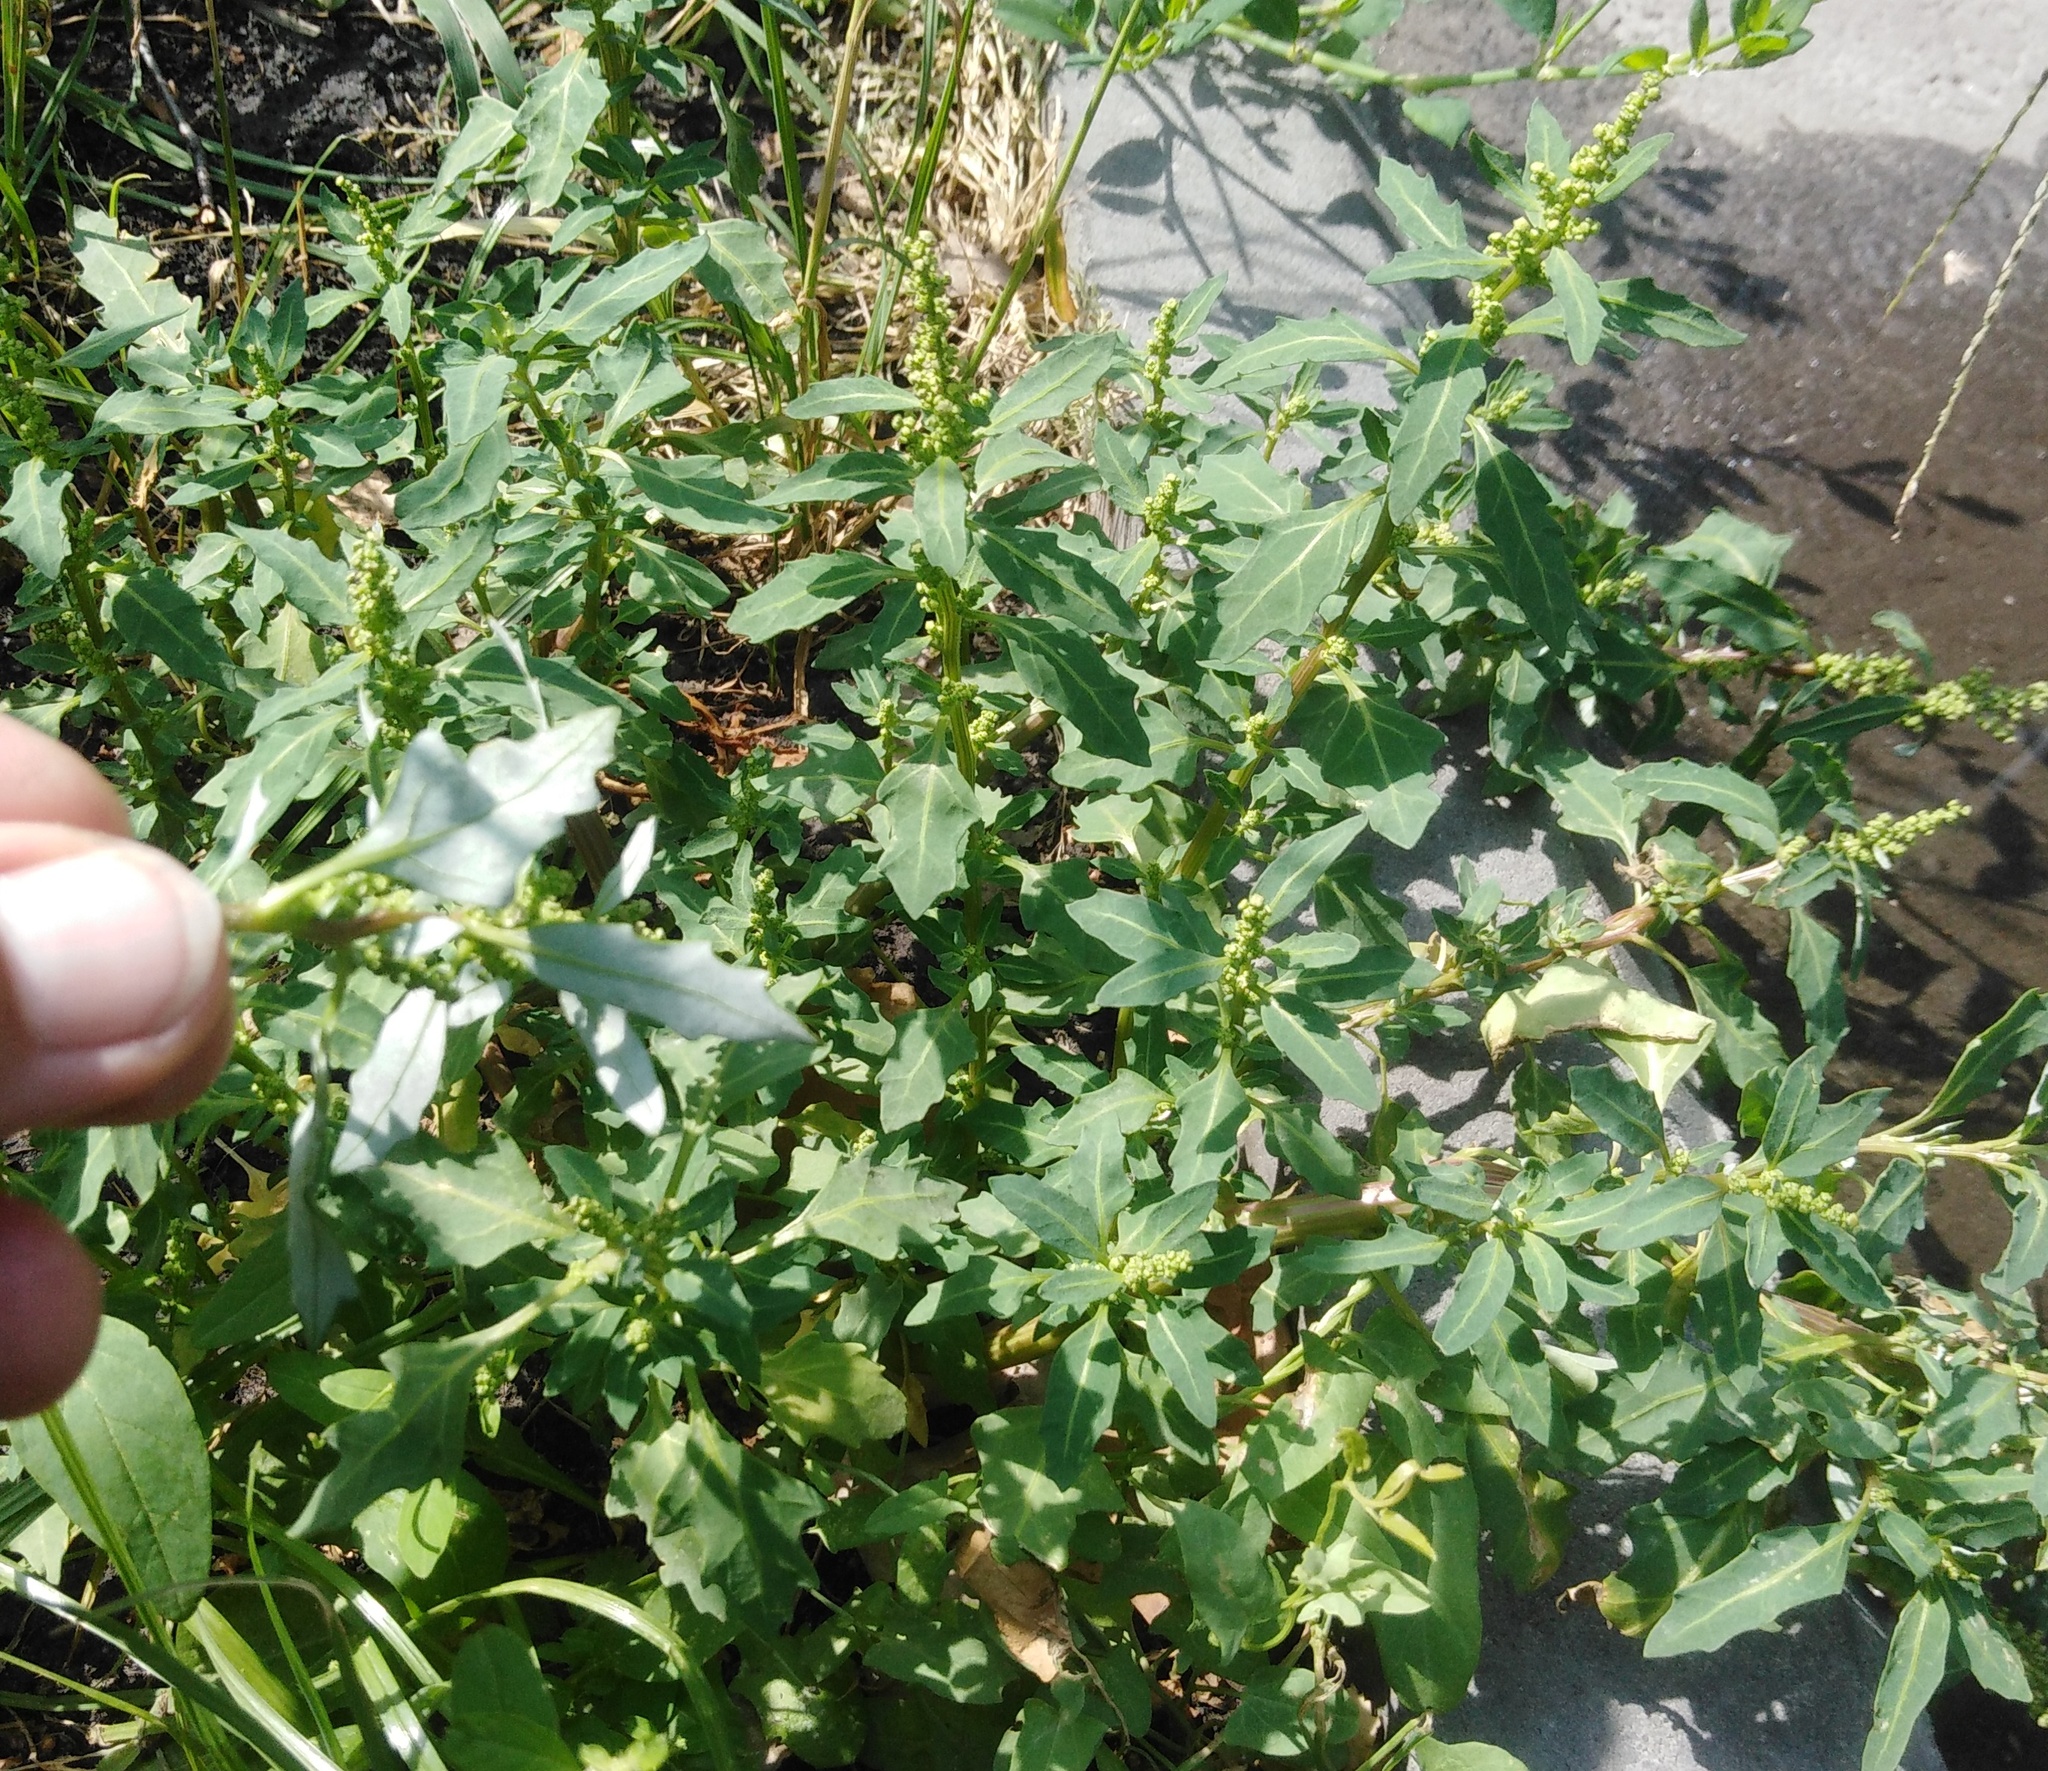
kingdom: Plantae
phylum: Tracheophyta
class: Magnoliopsida
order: Caryophyllales
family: Amaranthaceae
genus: Oxybasis
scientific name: Oxybasis glauca
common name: Glaucous goosefoot
